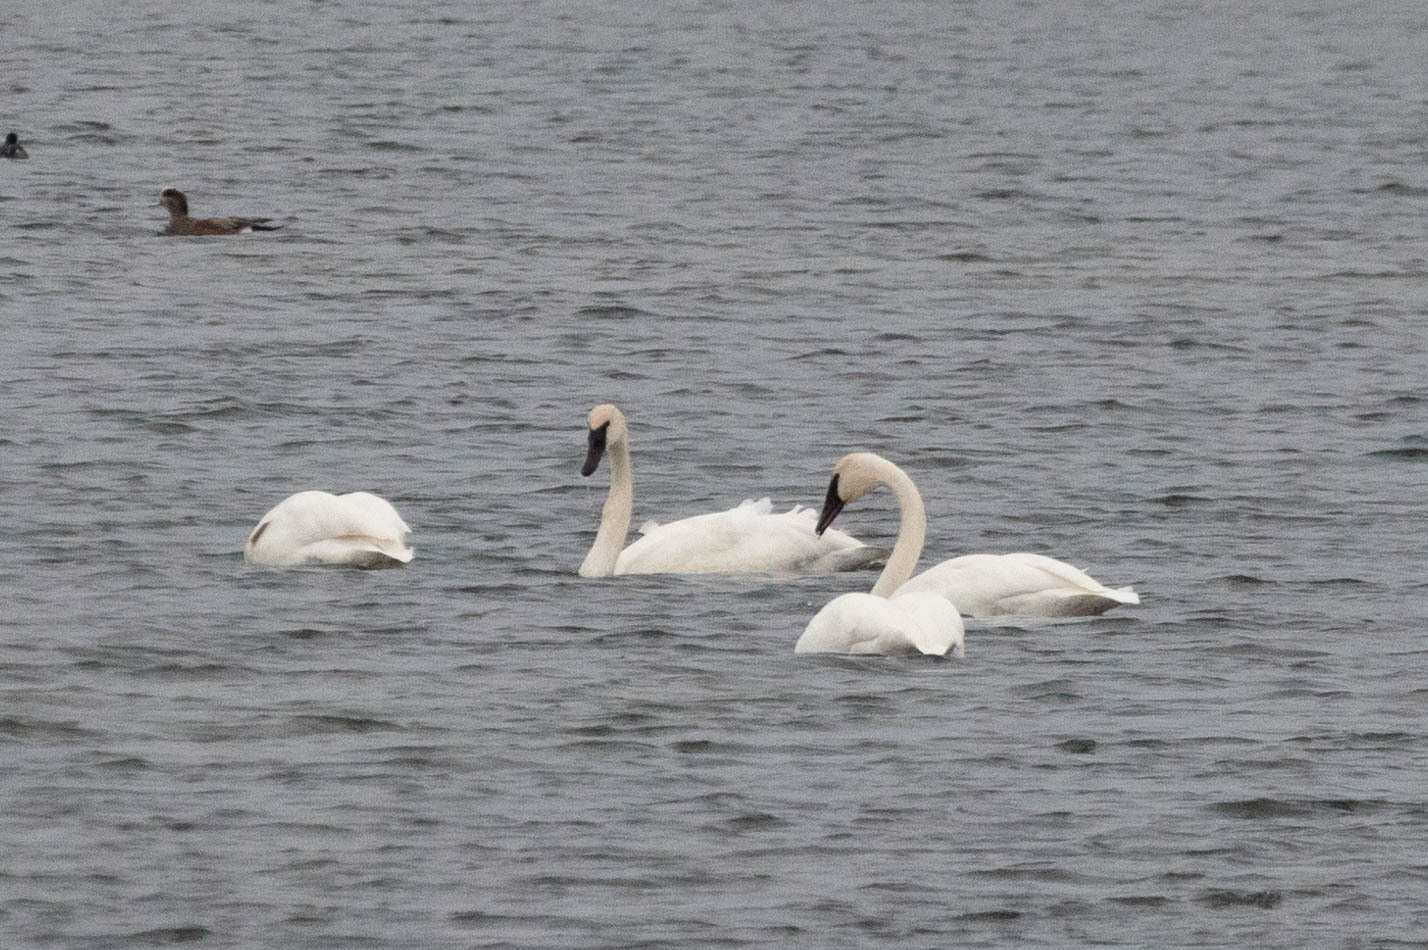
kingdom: Animalia
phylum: Chordata
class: Aves
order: Anseriformes
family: Anatidae
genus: Cygnus
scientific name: Cygnus buccinator
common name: Trumpeter swan
